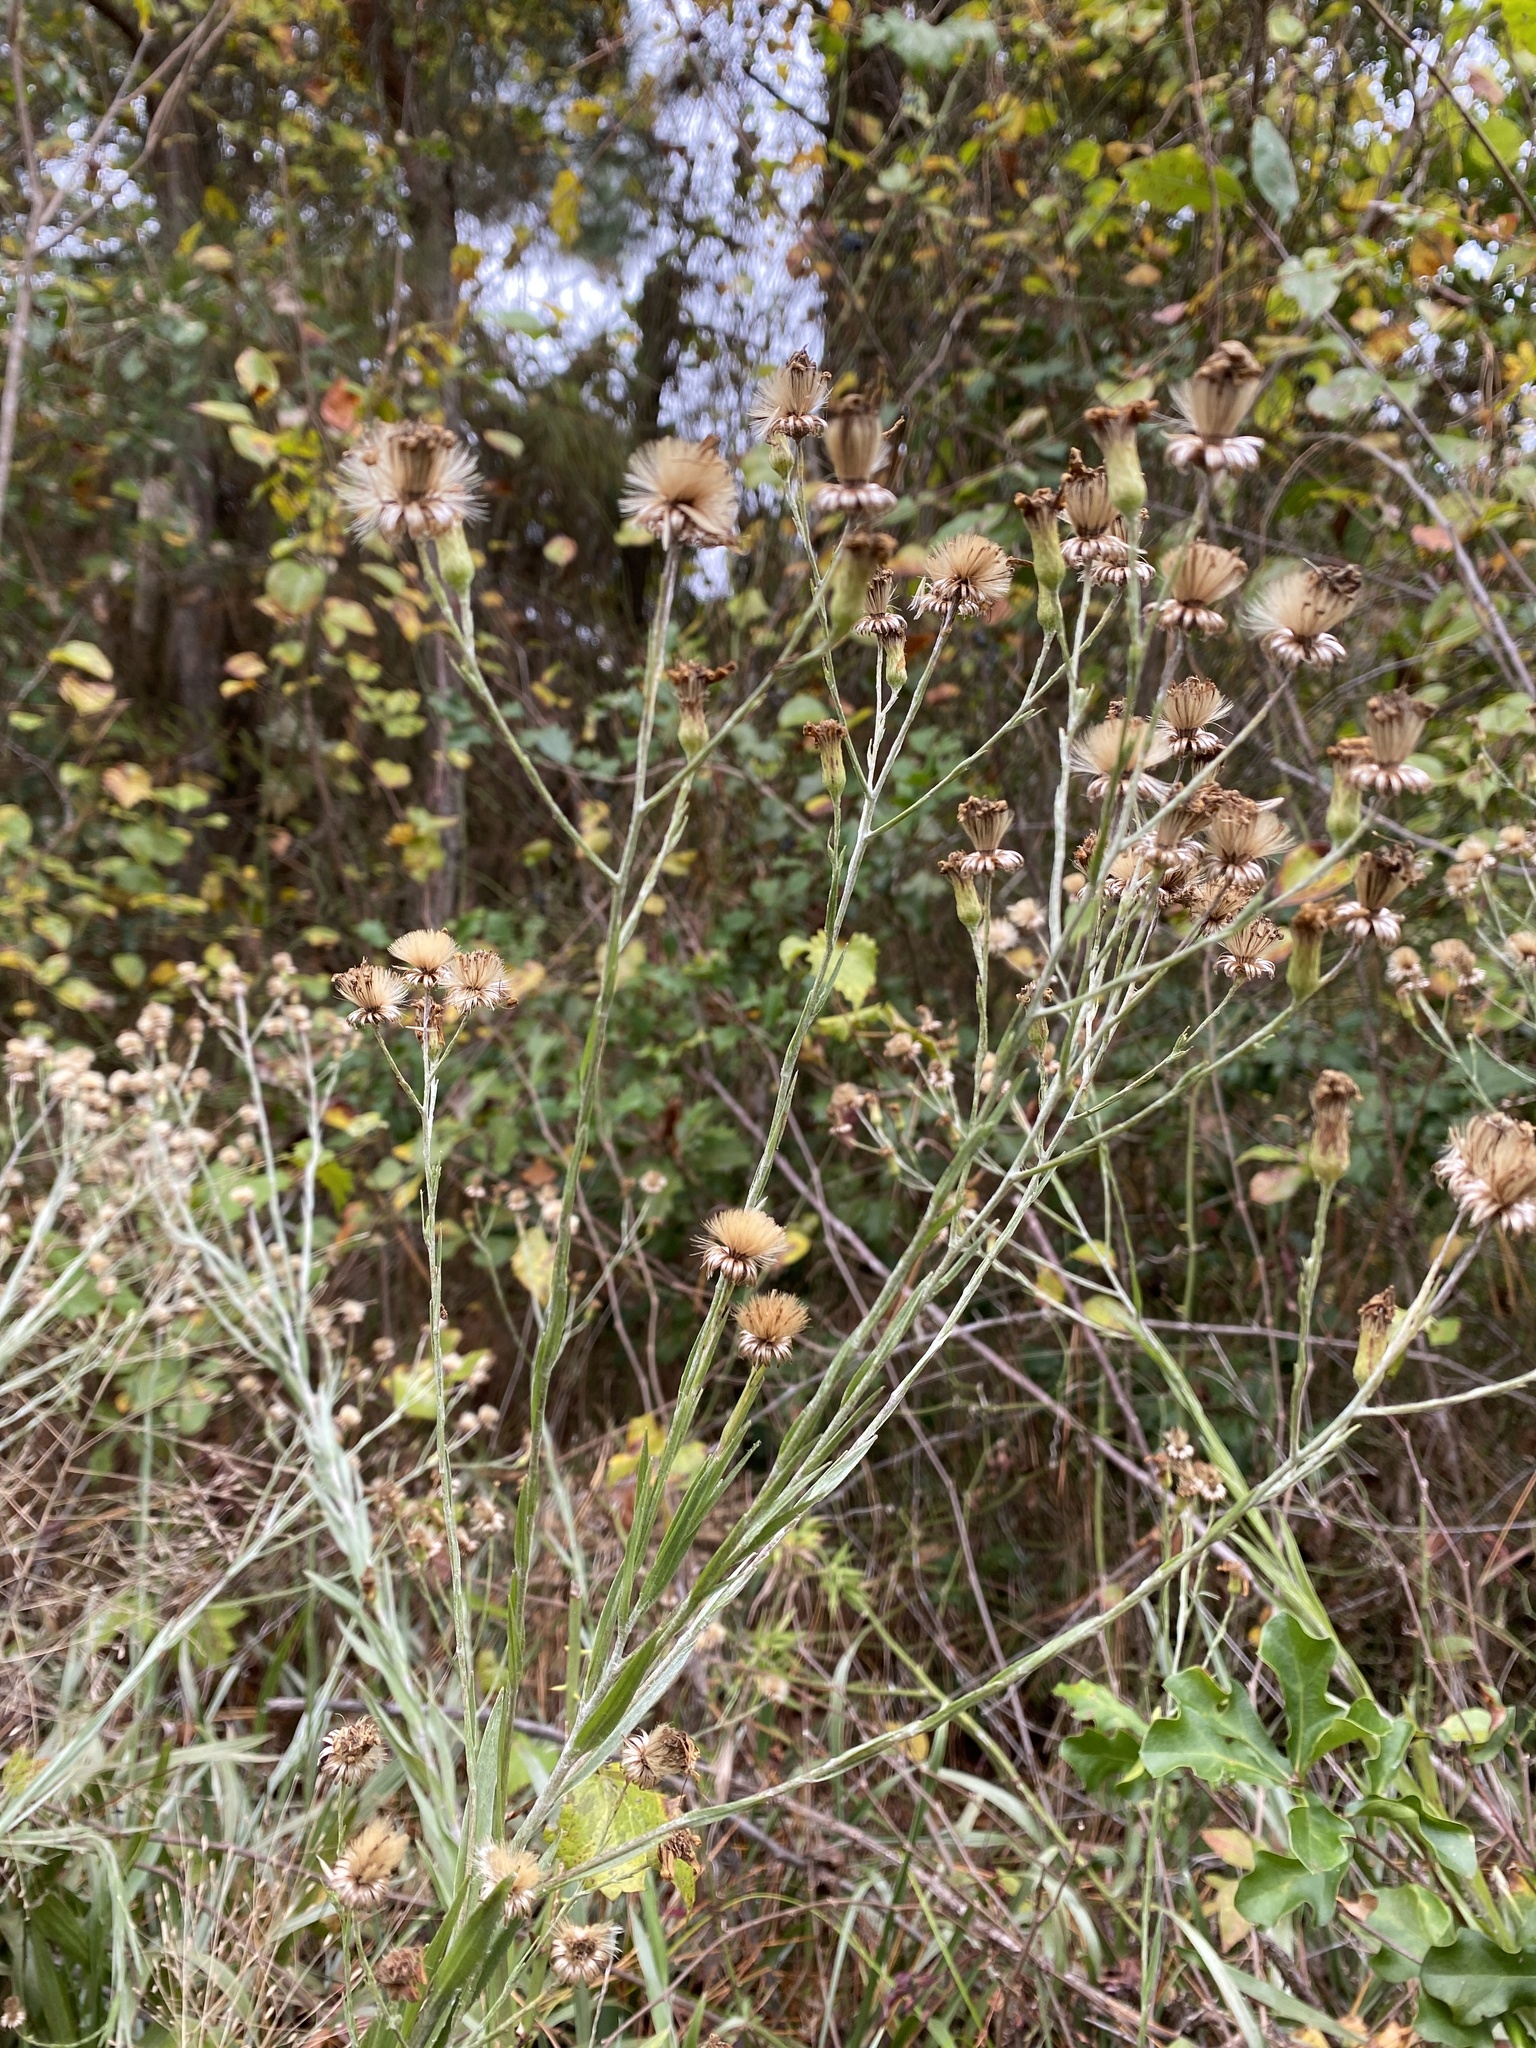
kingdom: Plantae
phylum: Tracheophyta
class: Magnoliopsida
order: Asterales
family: Asteraceae
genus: Pityopsis
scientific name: Pityopsis graminifolia
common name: Grass-leaf golden-aster
